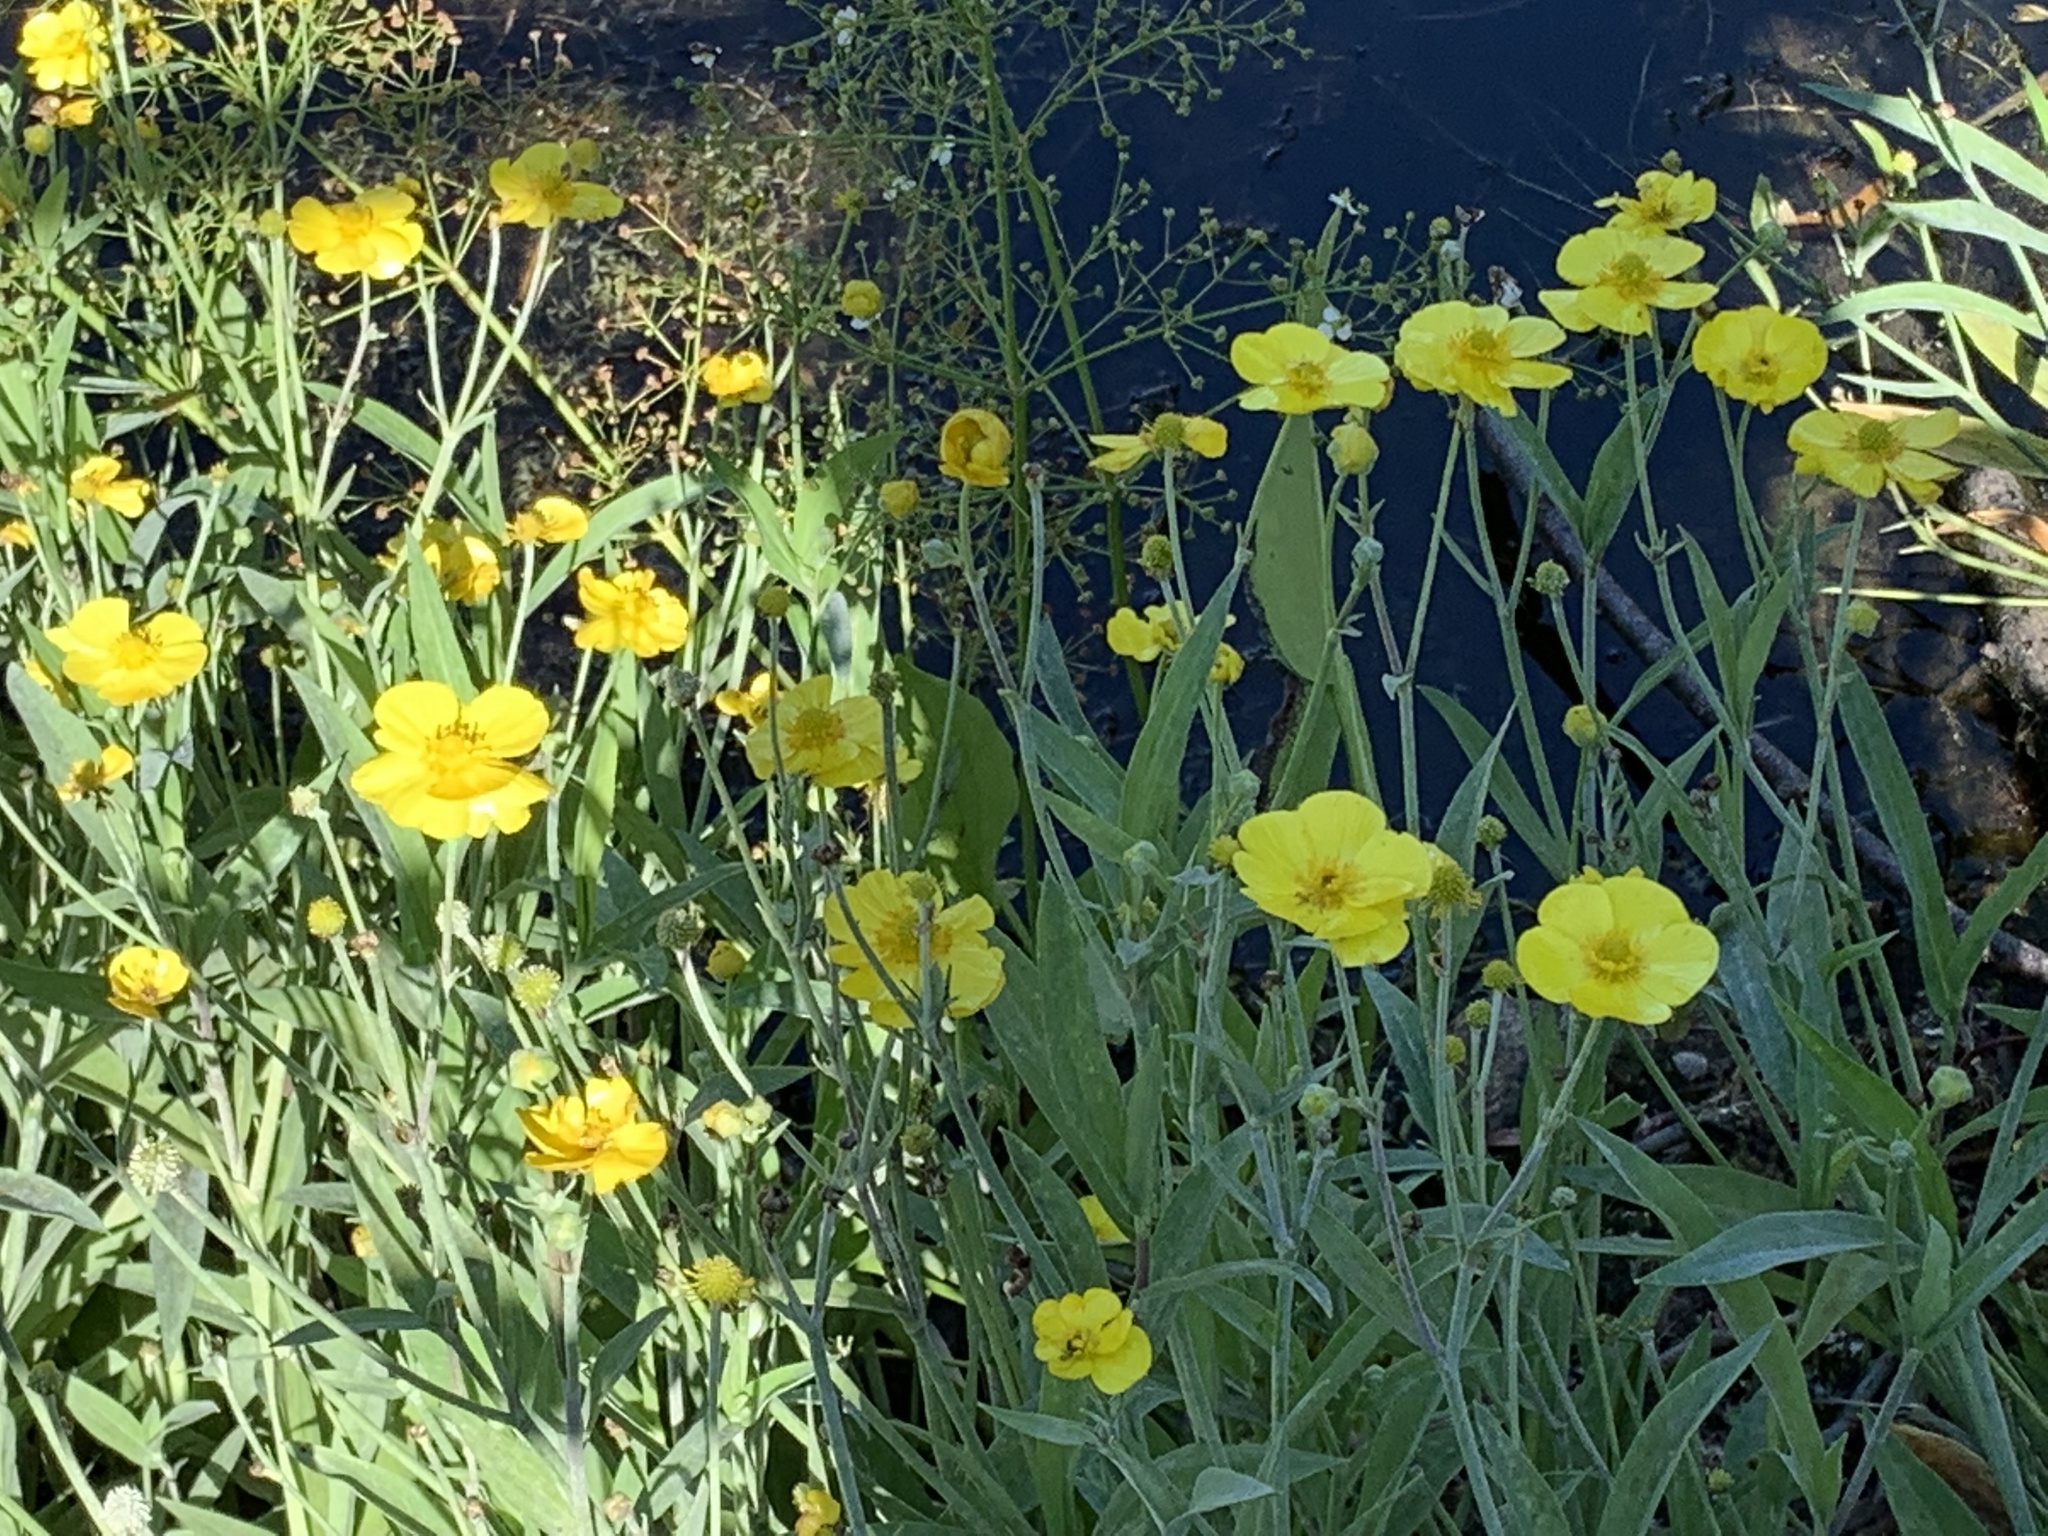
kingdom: Plantae
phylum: Tracheophyta
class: Magnoliopsida
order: Ranunculales
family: Ranunculaceae
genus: Ranunculus
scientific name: Ranunculus lingua
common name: Greater spearwort
